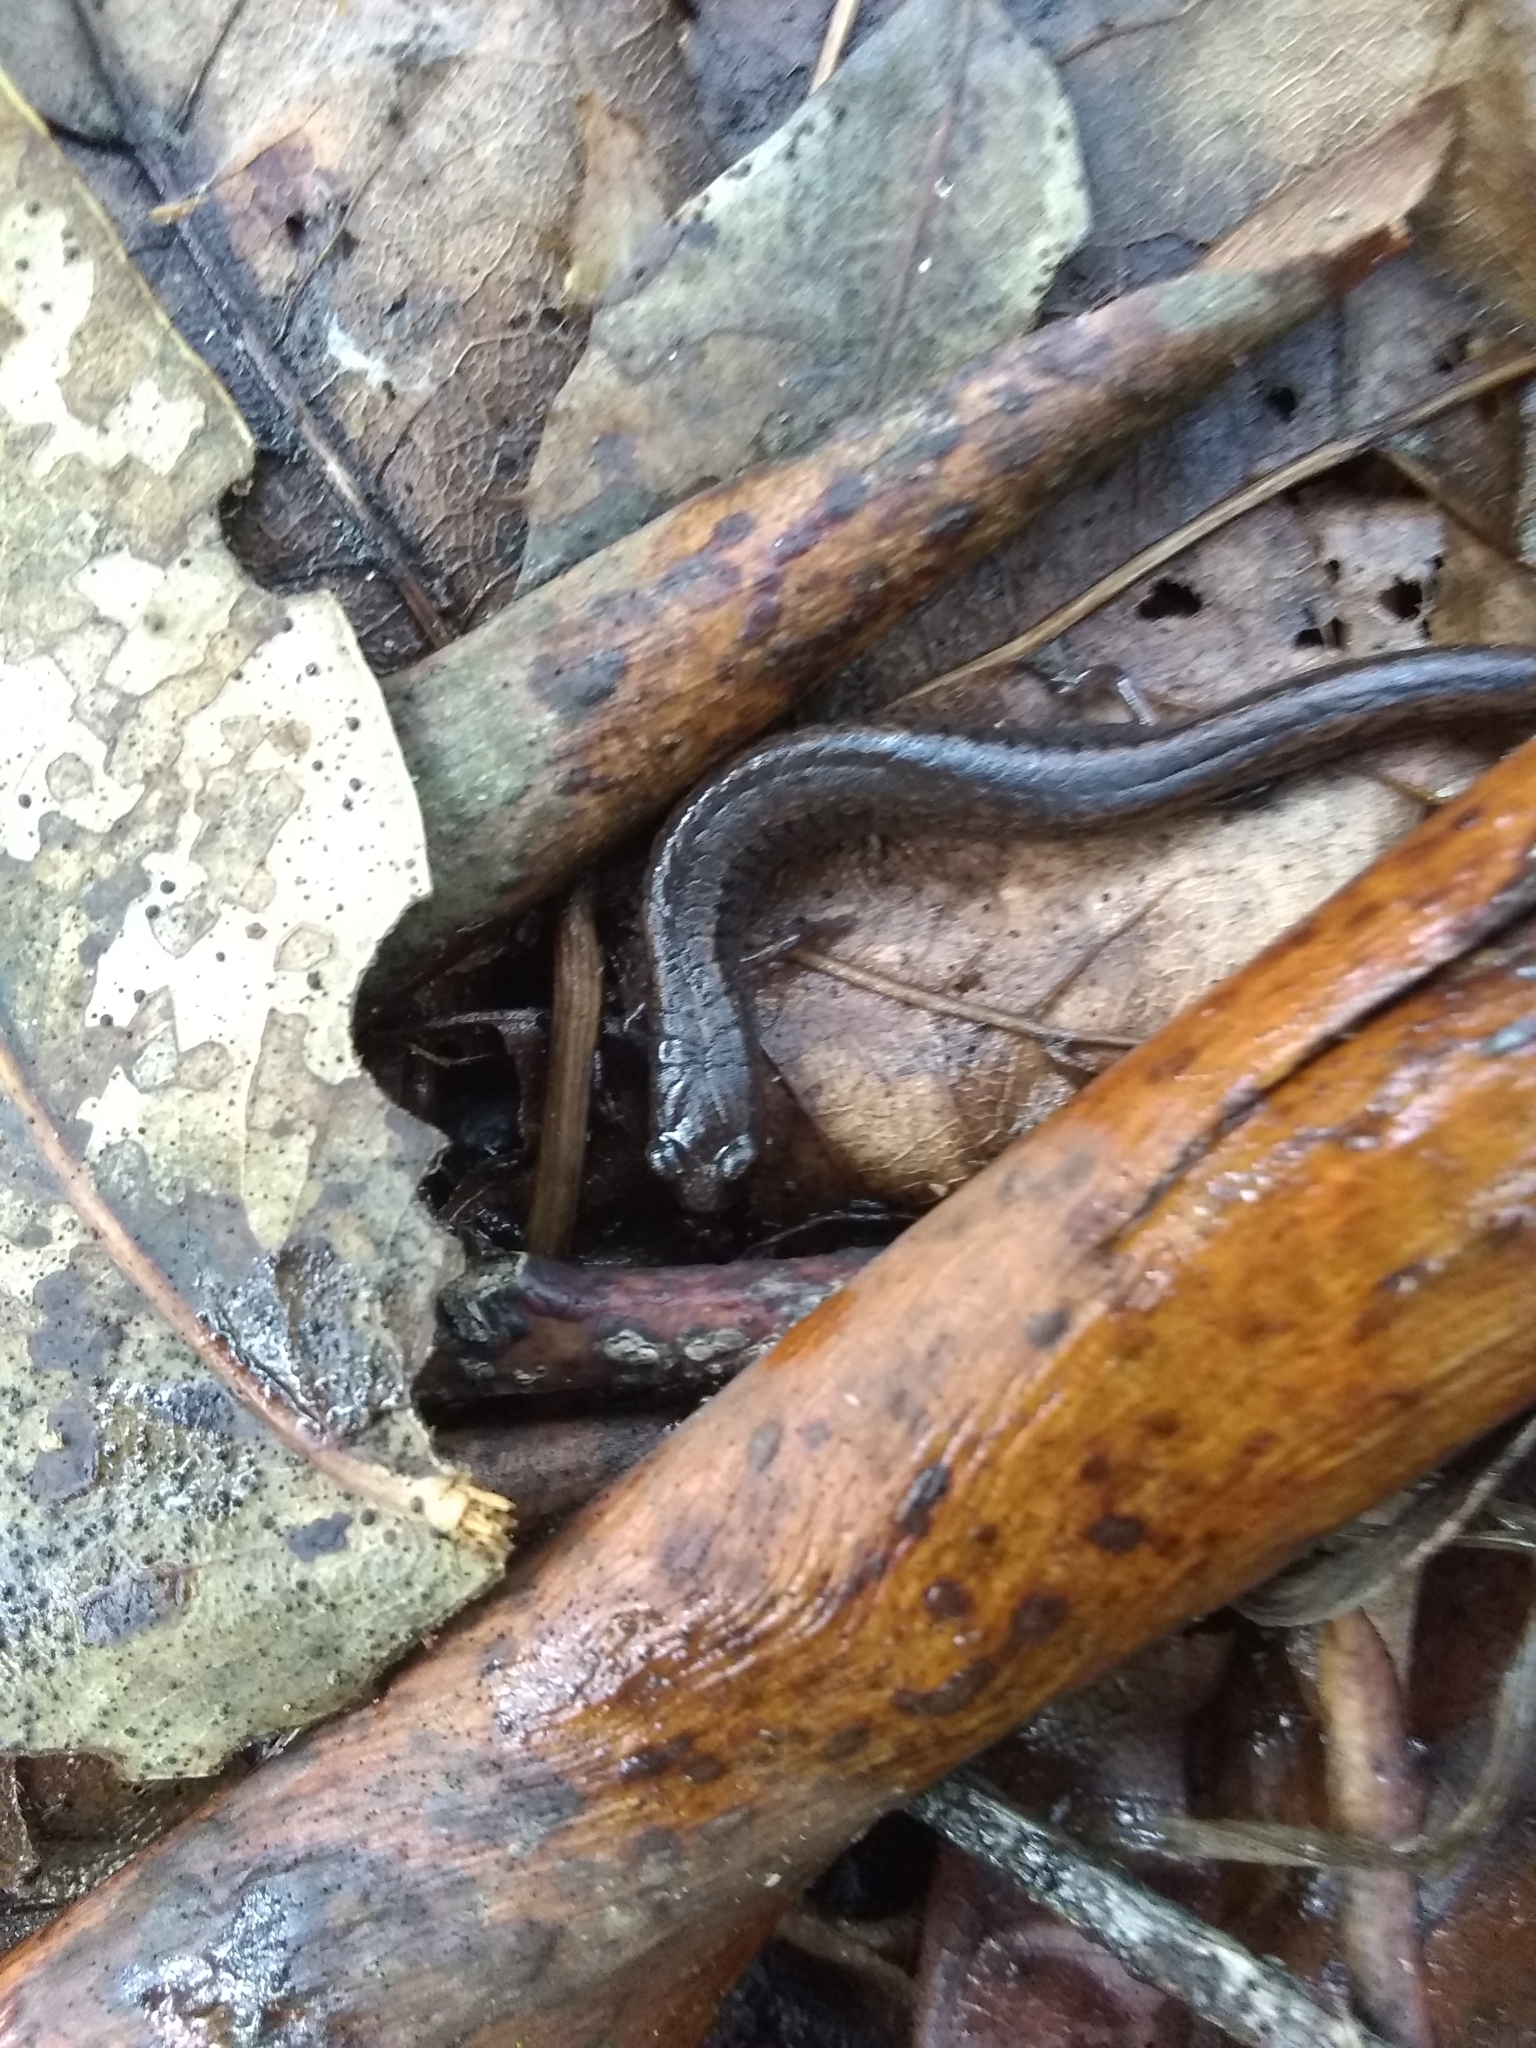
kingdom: Animalia
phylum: Chordata
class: Amphibia
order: Caudata
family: Plethodontidae
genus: Batrachoseps
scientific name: Batrachoseps attenuatus
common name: California slender salamander
